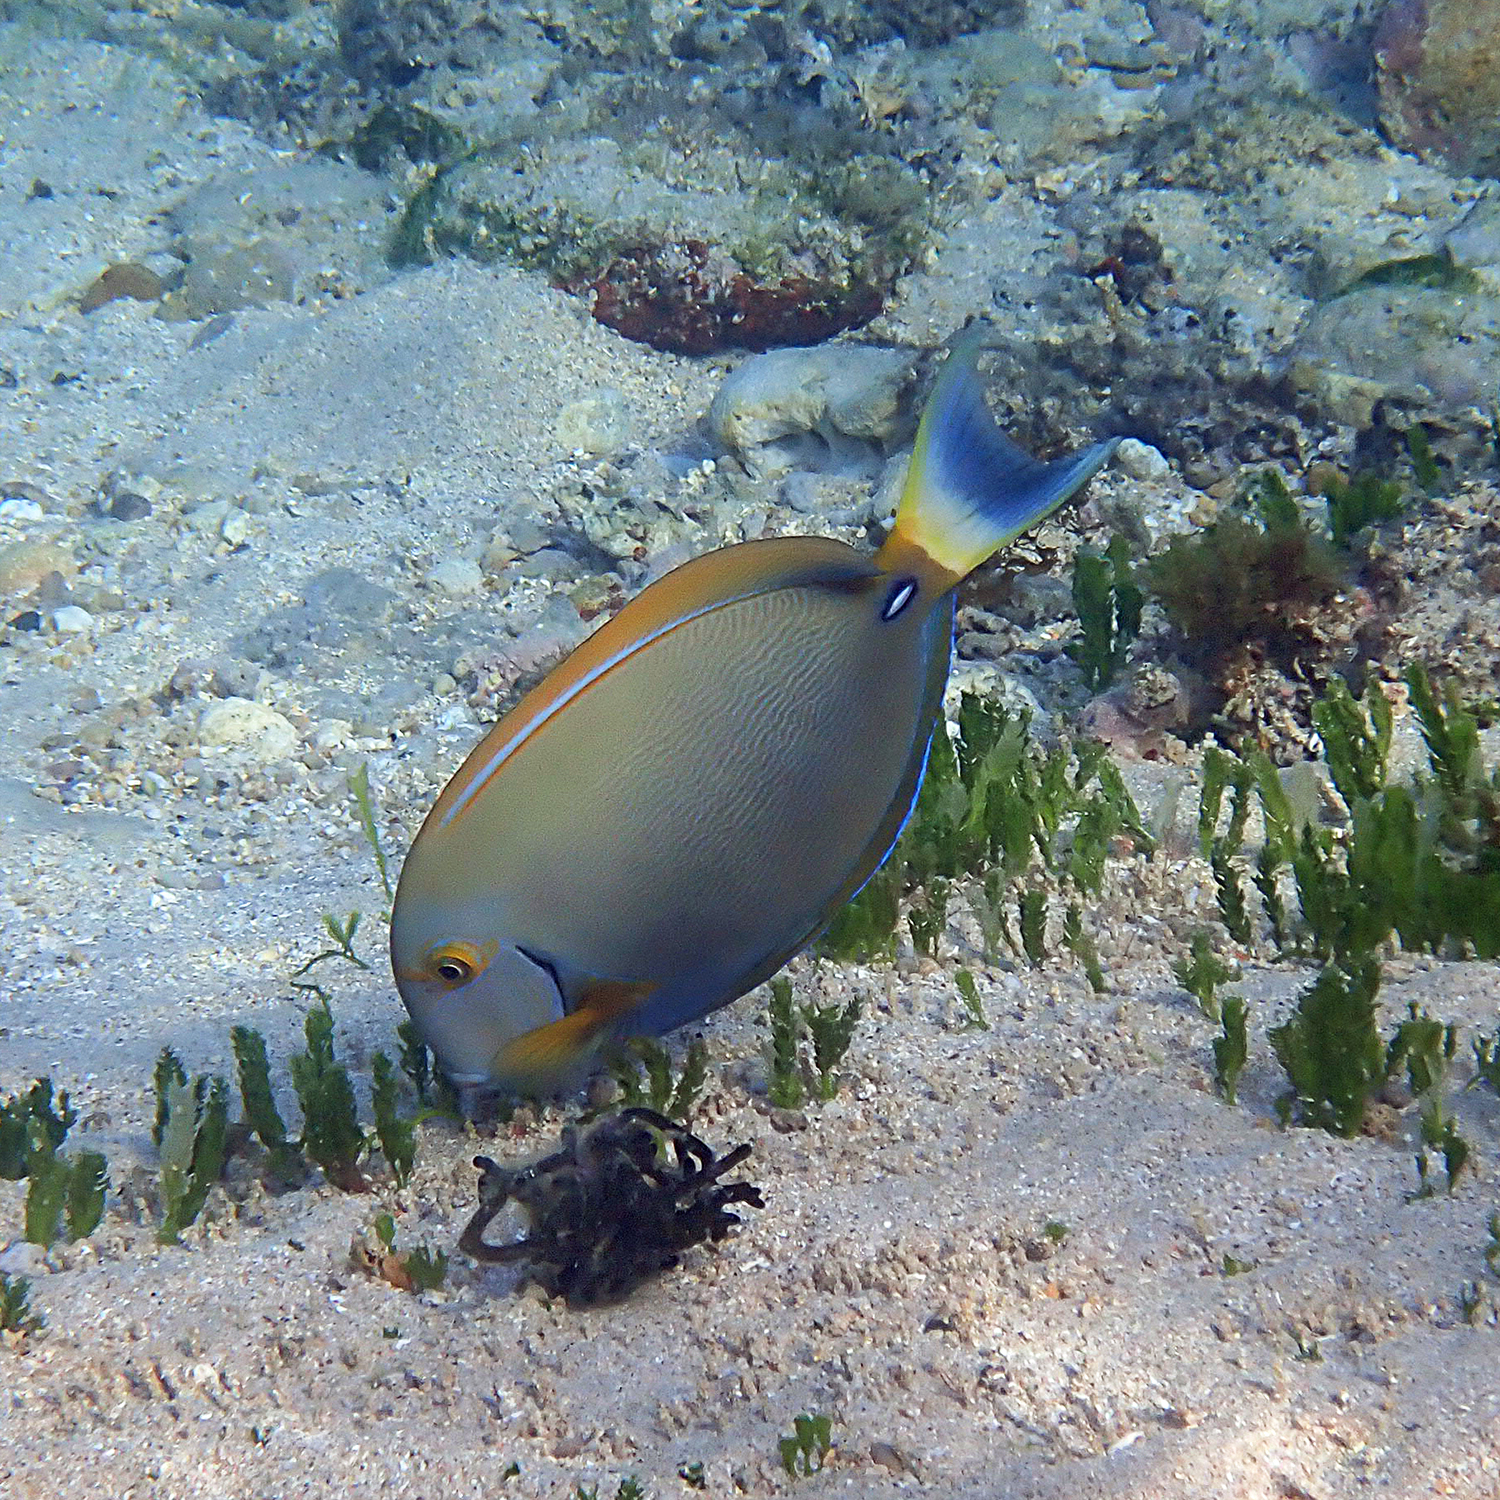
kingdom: Animalia
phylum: Chordata
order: Perciformes
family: Acanthuridae
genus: Acanthurus
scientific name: Acanthurus dussumieri
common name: Dussumier's surgeonfish
